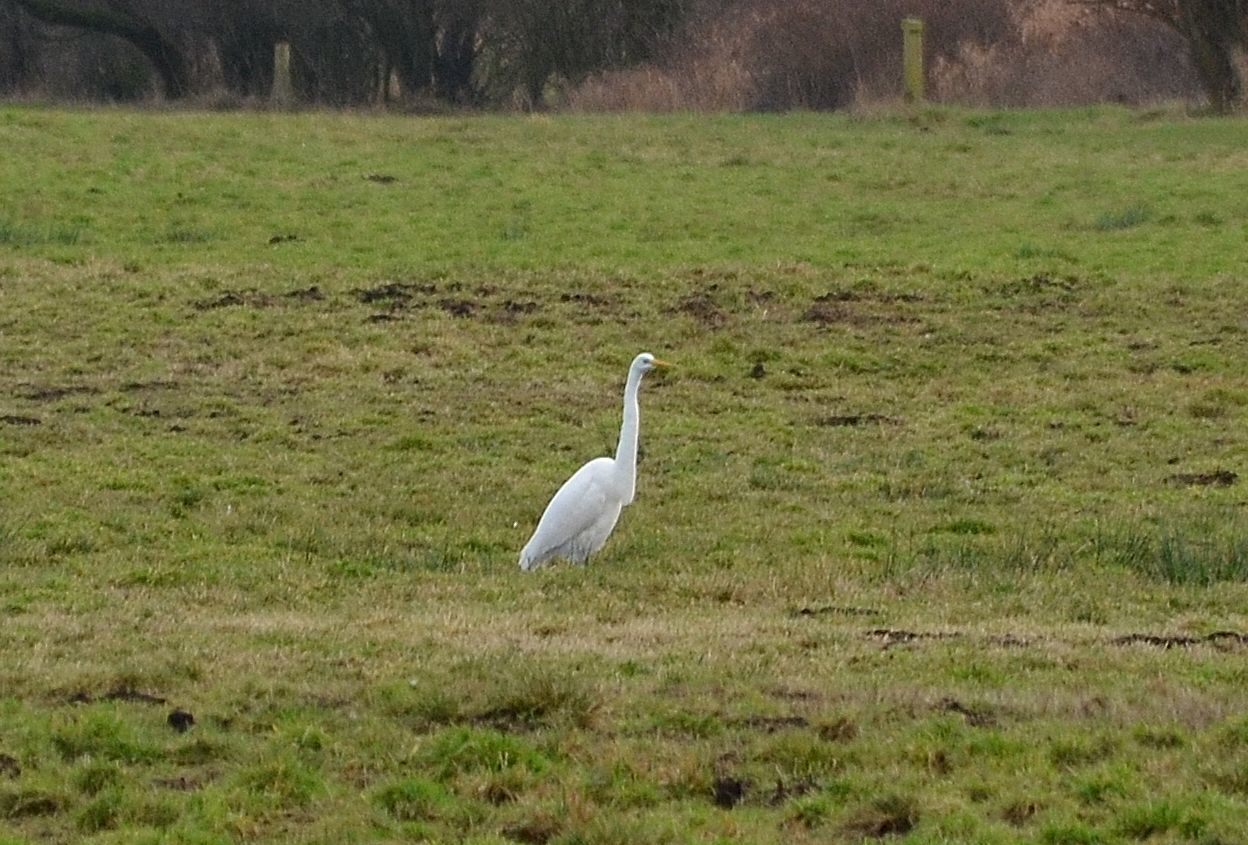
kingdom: Animalia
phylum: Chordata
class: Aves
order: Pelecaniformes
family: Ardeidae
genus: Ardea
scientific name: Ardea alba
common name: Great egret
